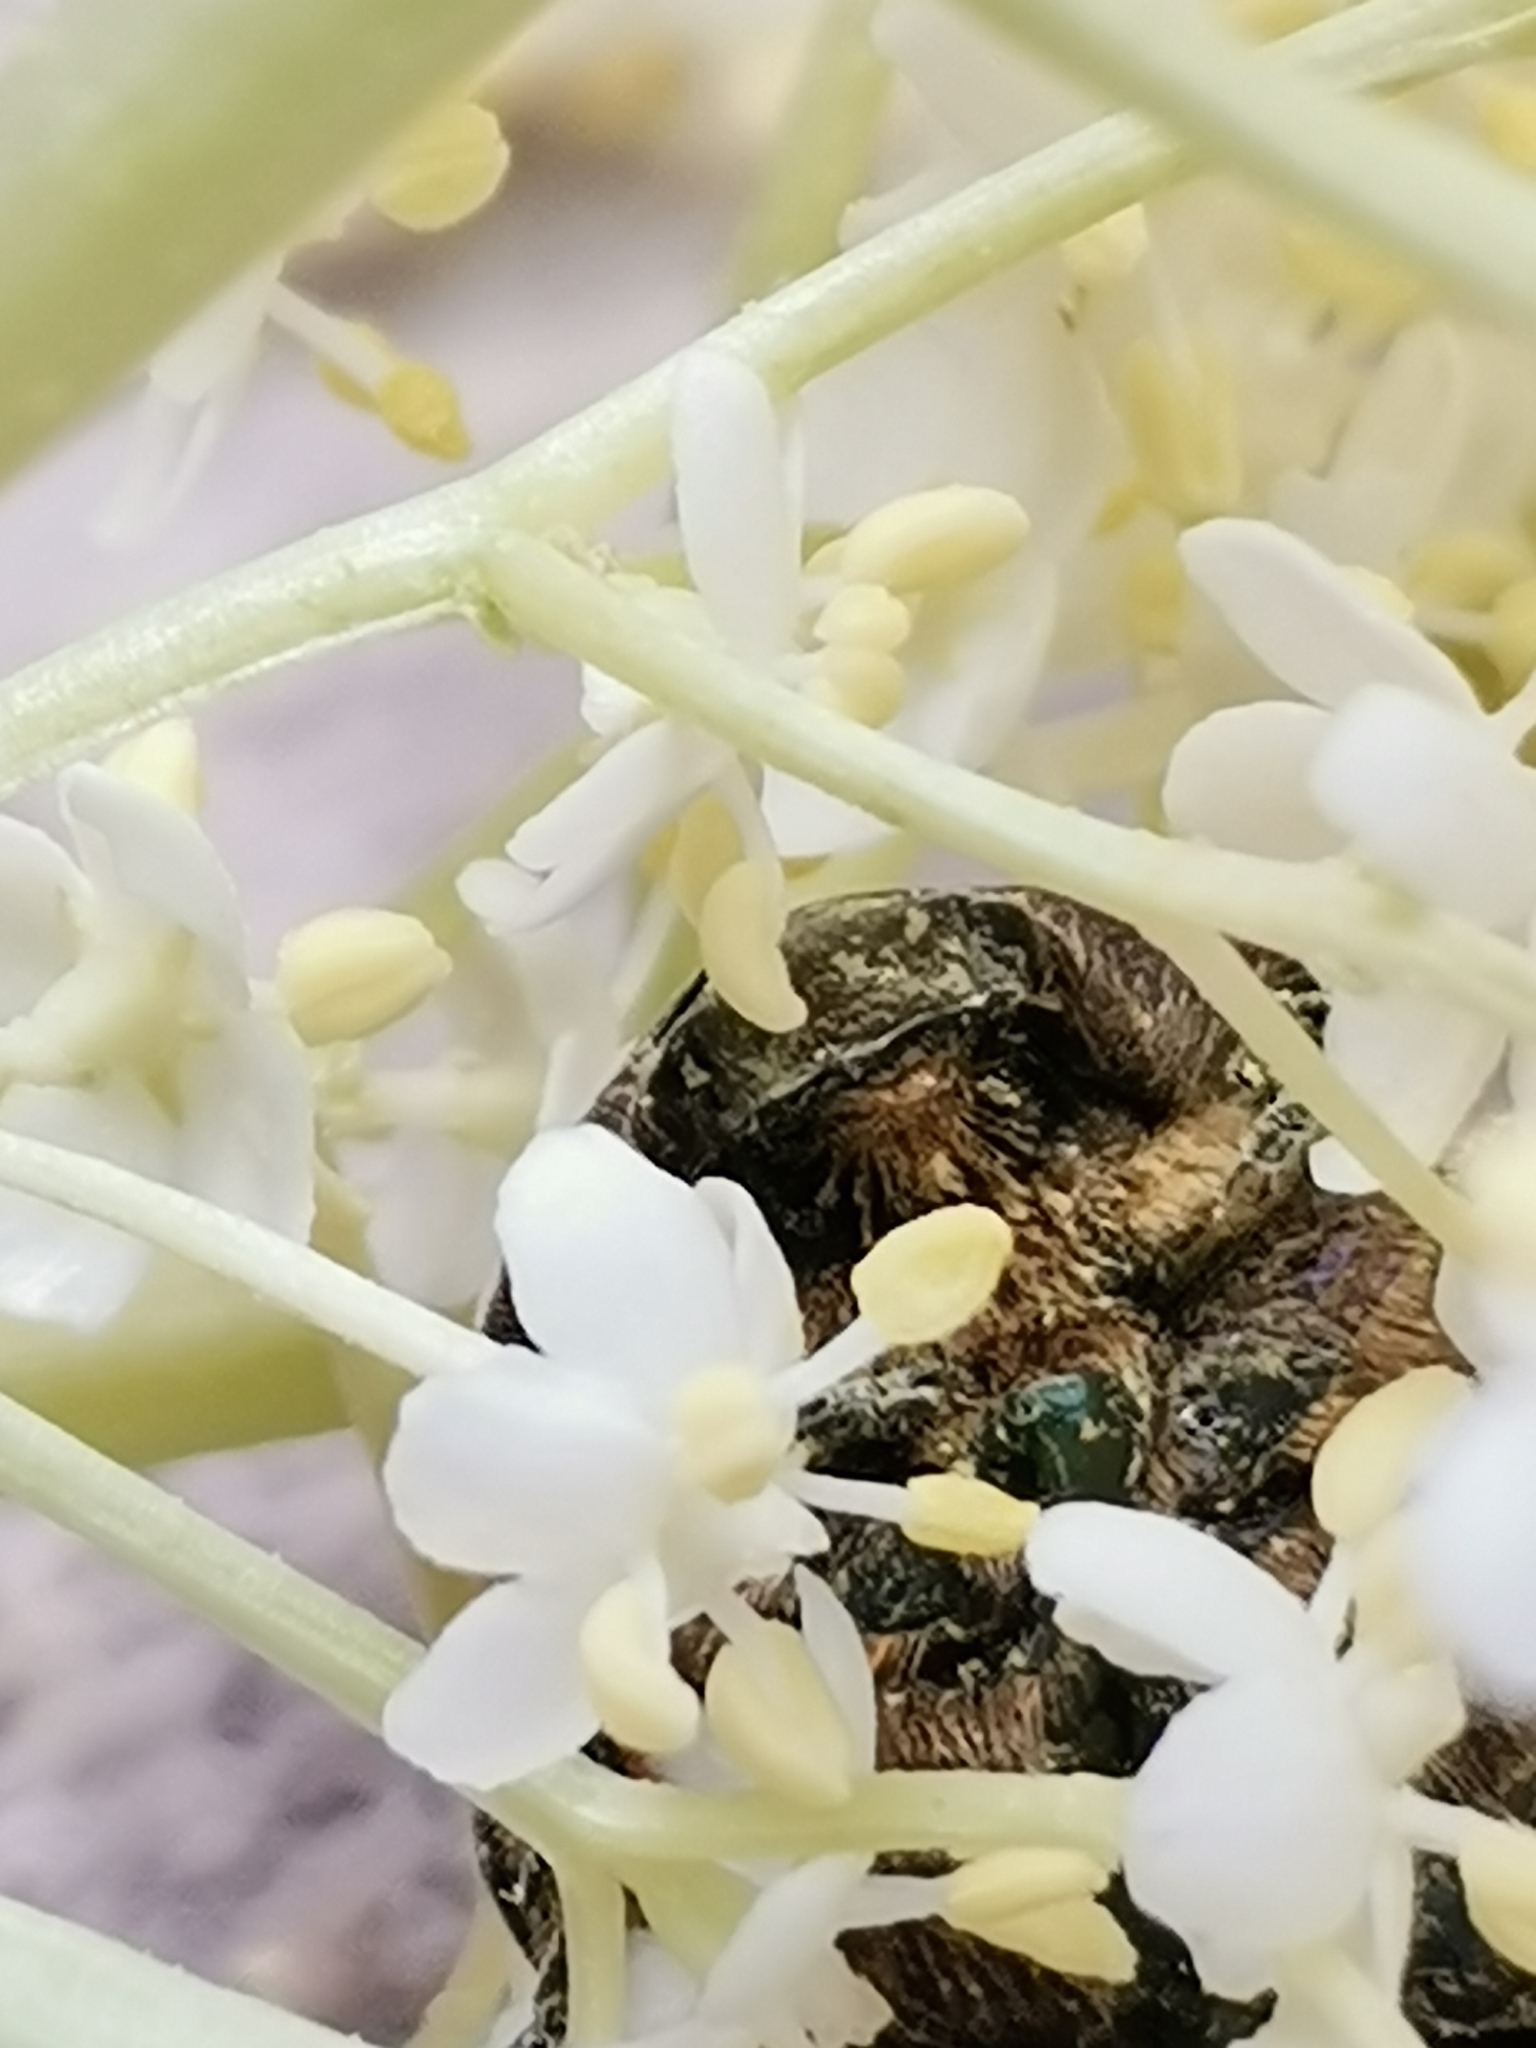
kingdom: Animalia
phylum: Arthropoda
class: Insecta
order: Coleoptera
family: Scarabaeidae
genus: Protaetia
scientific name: Protaetia cuprea
